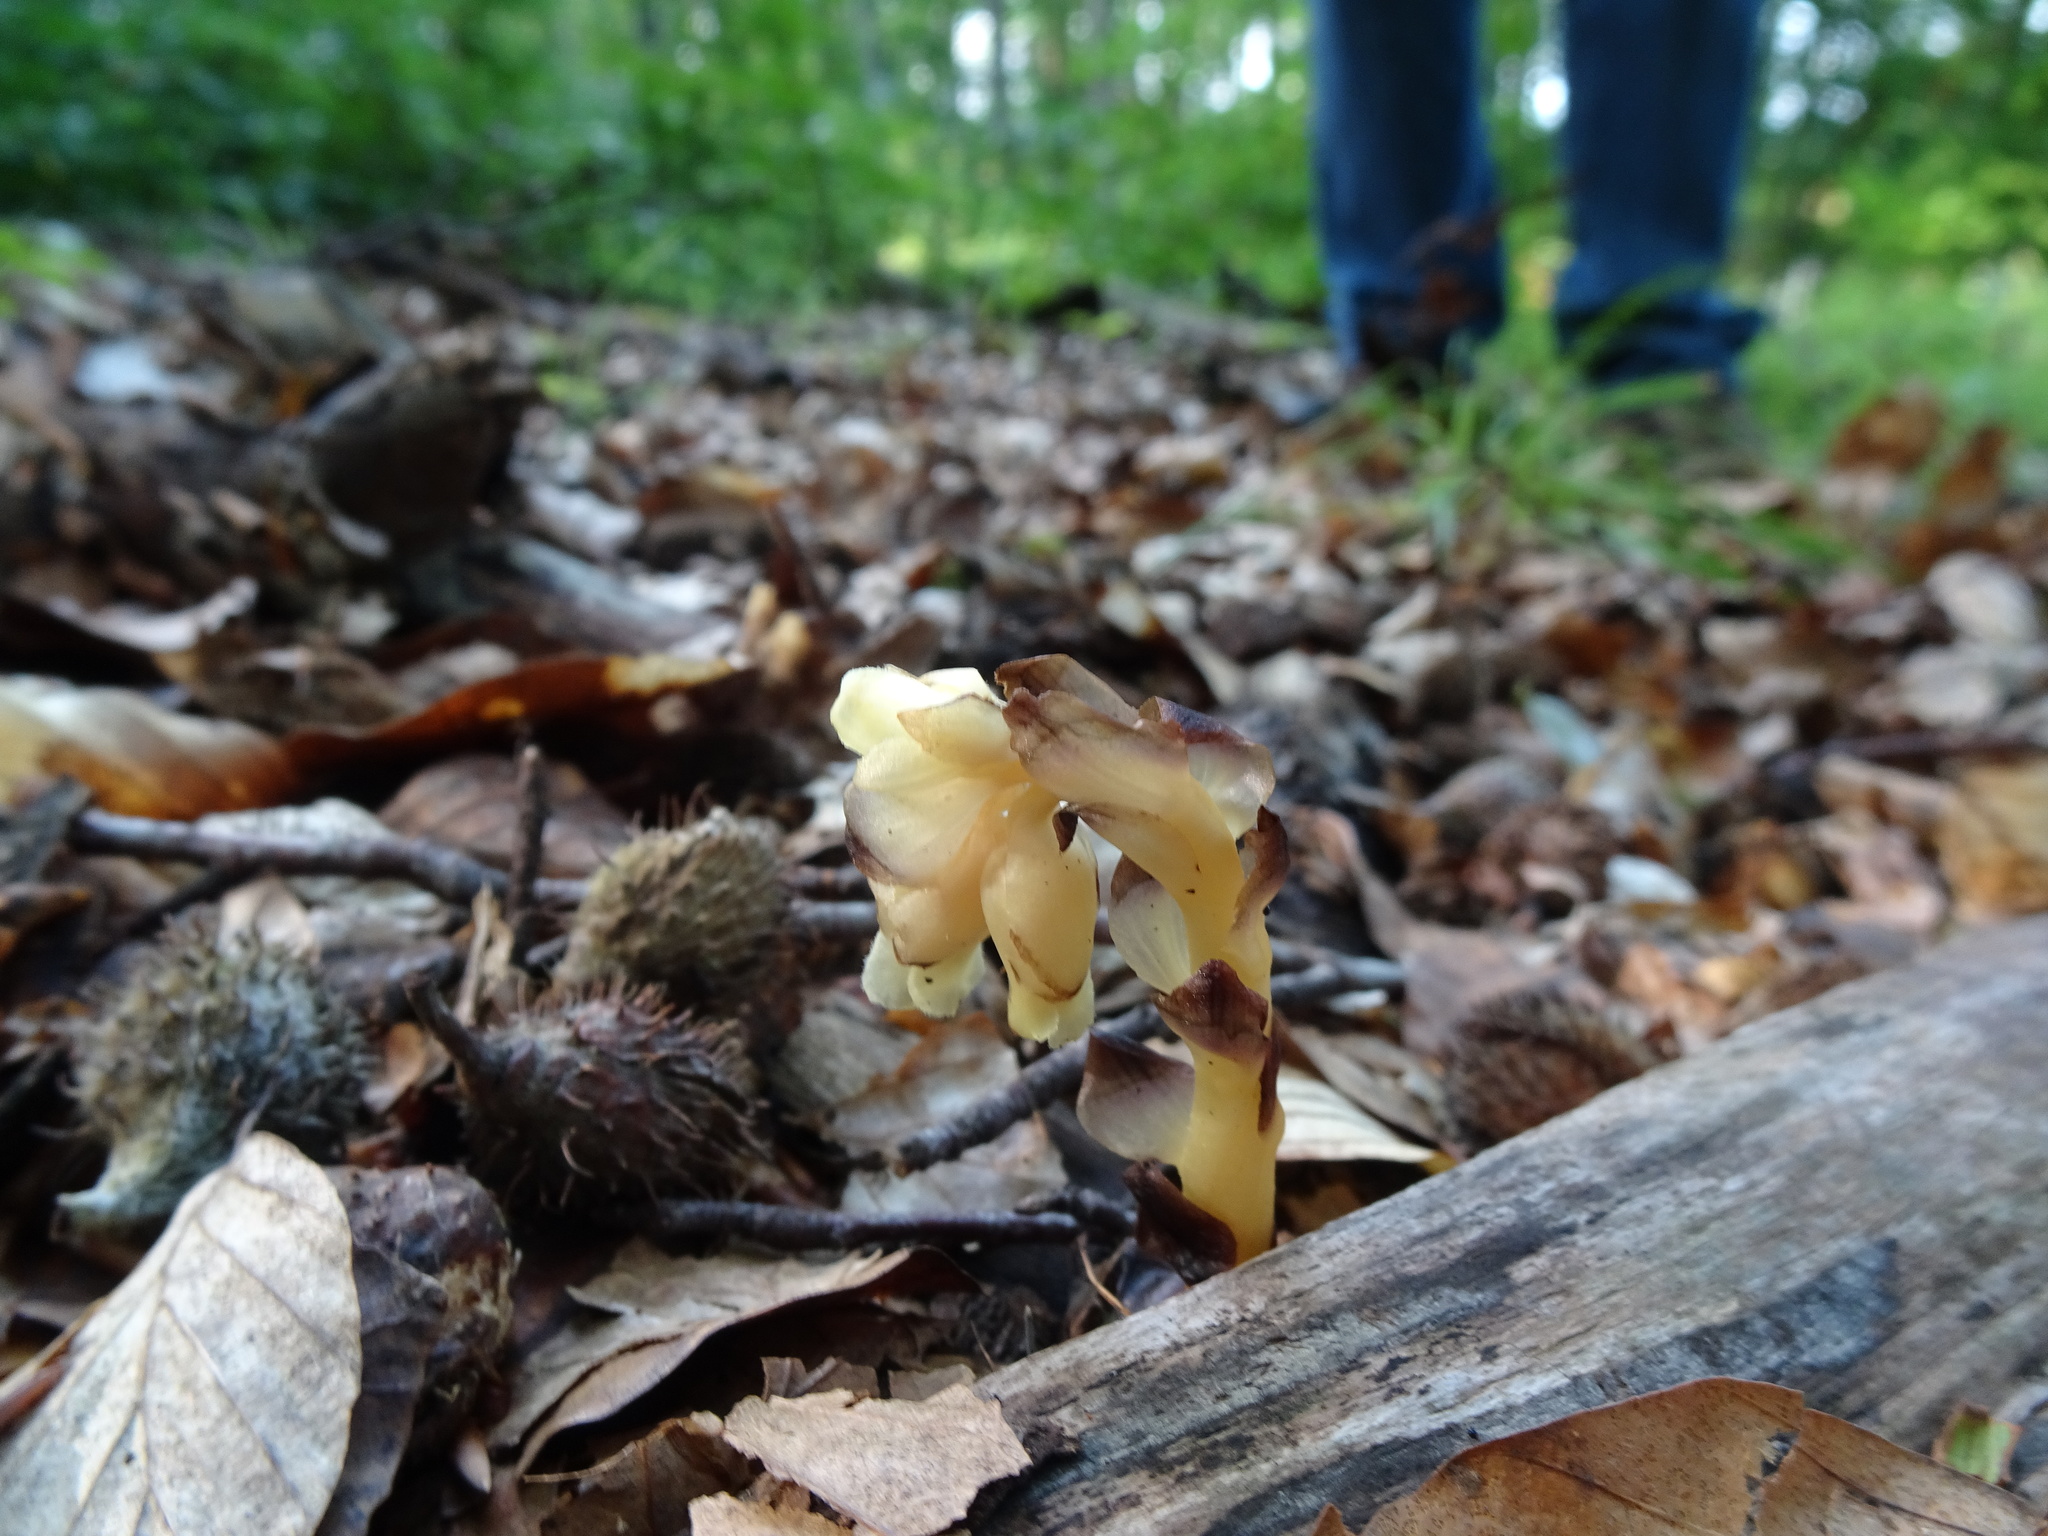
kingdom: Plantae
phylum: Tracheophyta
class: Magnoliopsida
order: Ericales
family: Ericaceae
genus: Hypopitys
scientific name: Hypopitys monotropa
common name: Yellow bird's-nest
